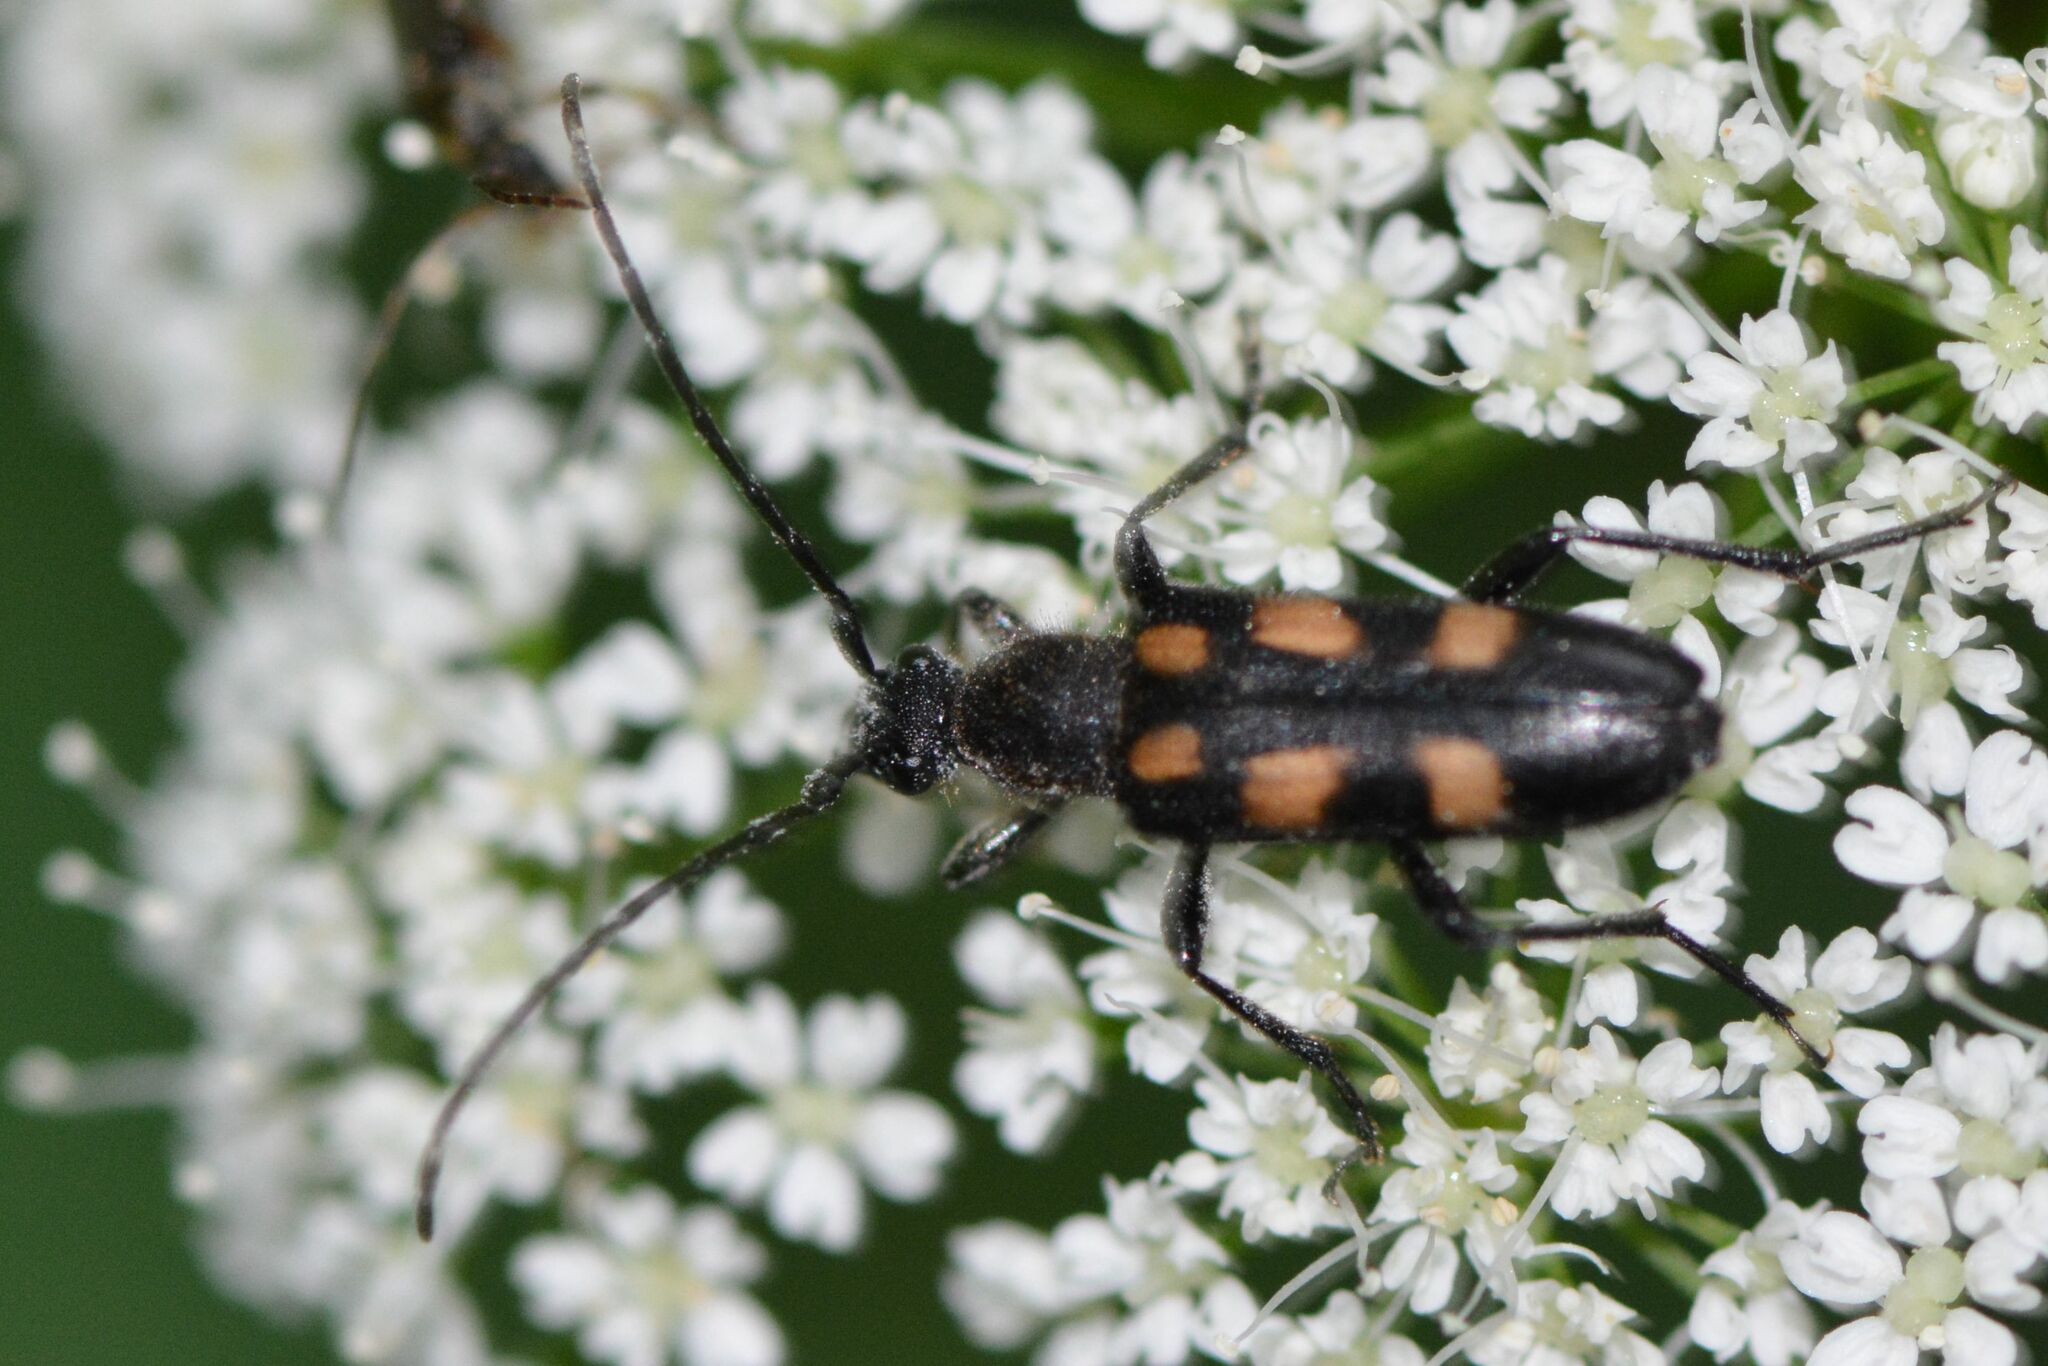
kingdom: Animalia
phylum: Arthropoda
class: Insecta
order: Coleoptera
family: Cerambycidae
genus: Anoplodera
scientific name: Anoplodera sexguttata
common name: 6 spotted longhorn
